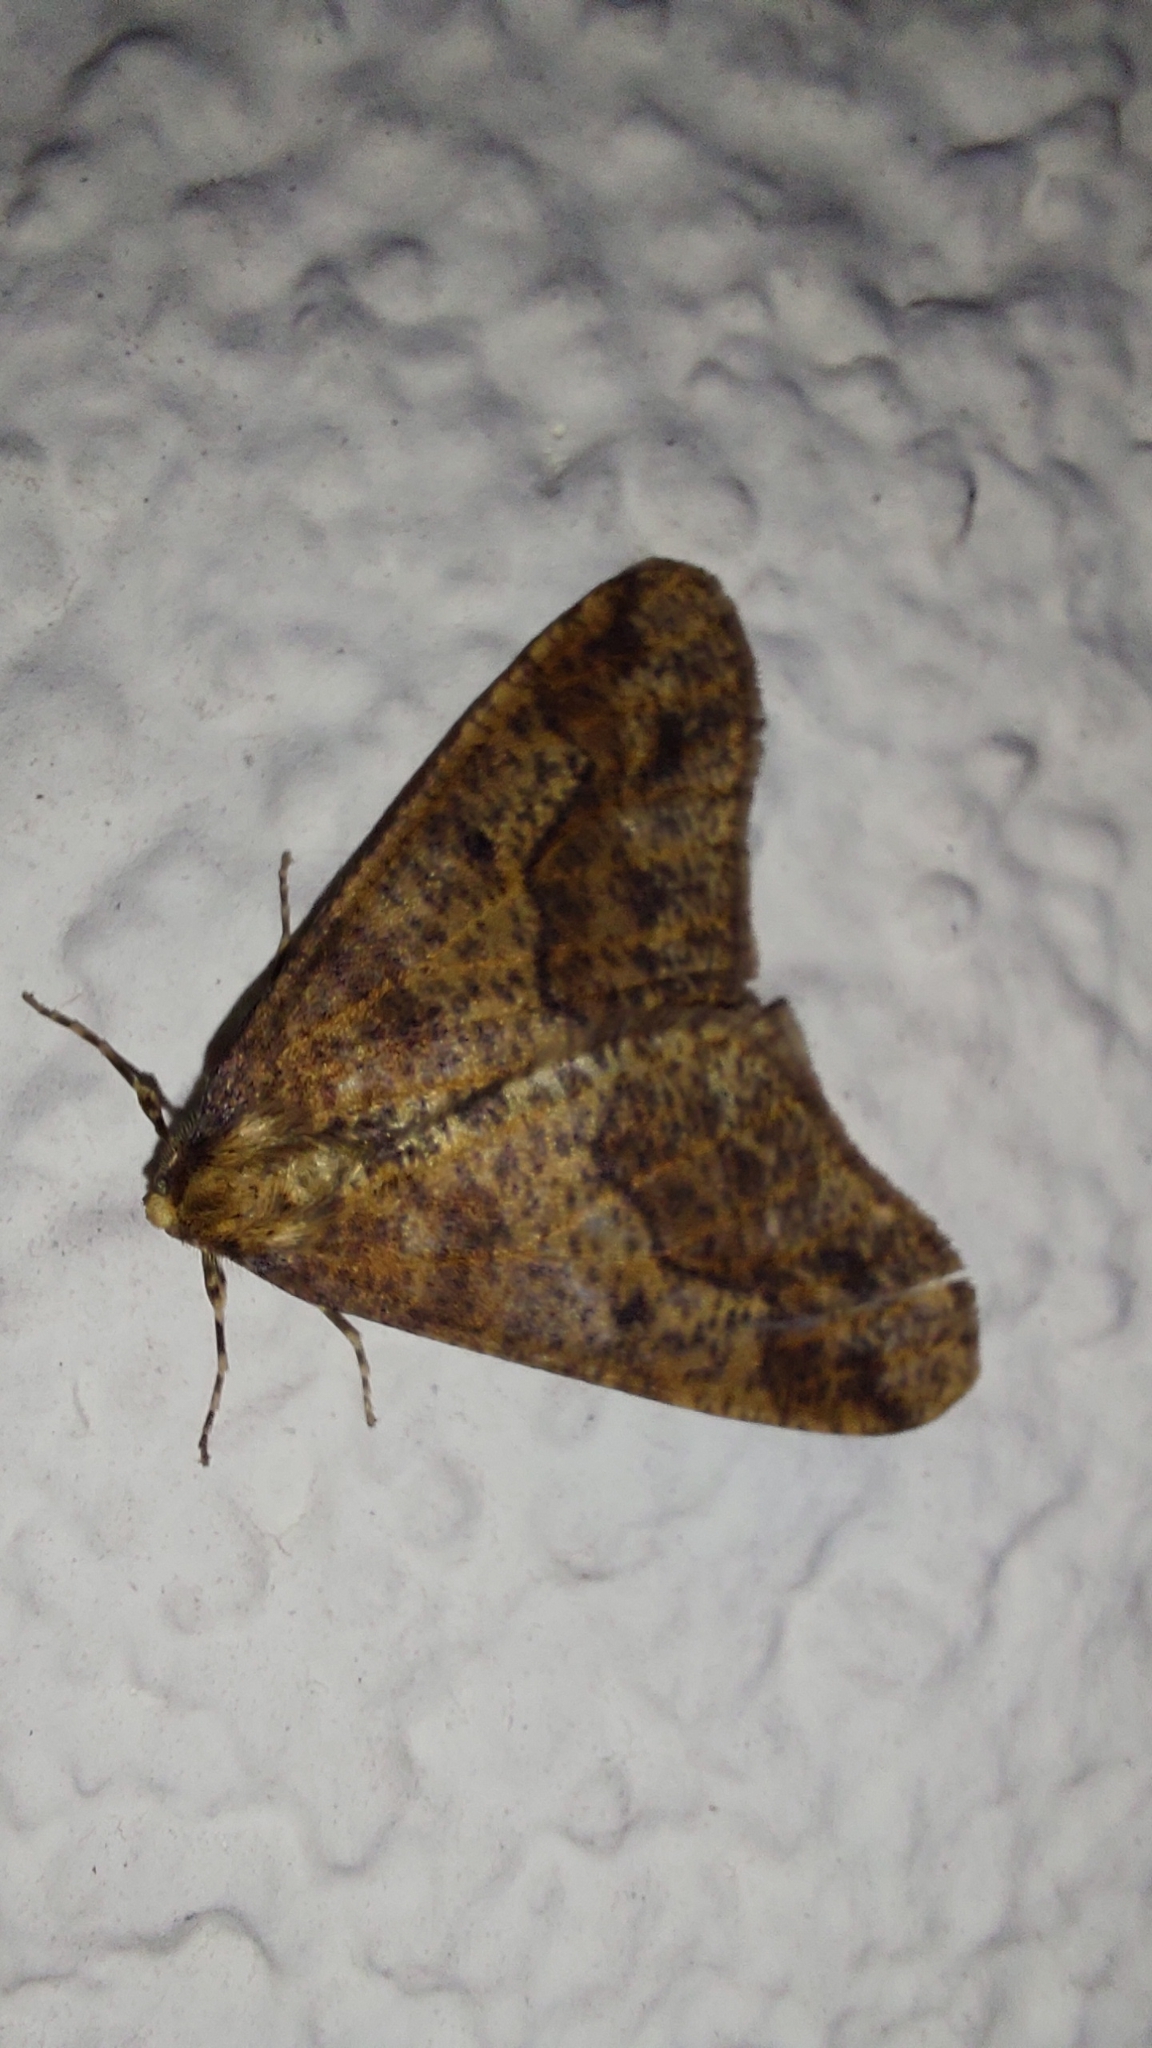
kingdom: Animalia
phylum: Arthropoda
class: Insecta
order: Lepidoptera
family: Geometridae
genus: Erannis
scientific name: Erannis defoliaria
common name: Mottled umber
